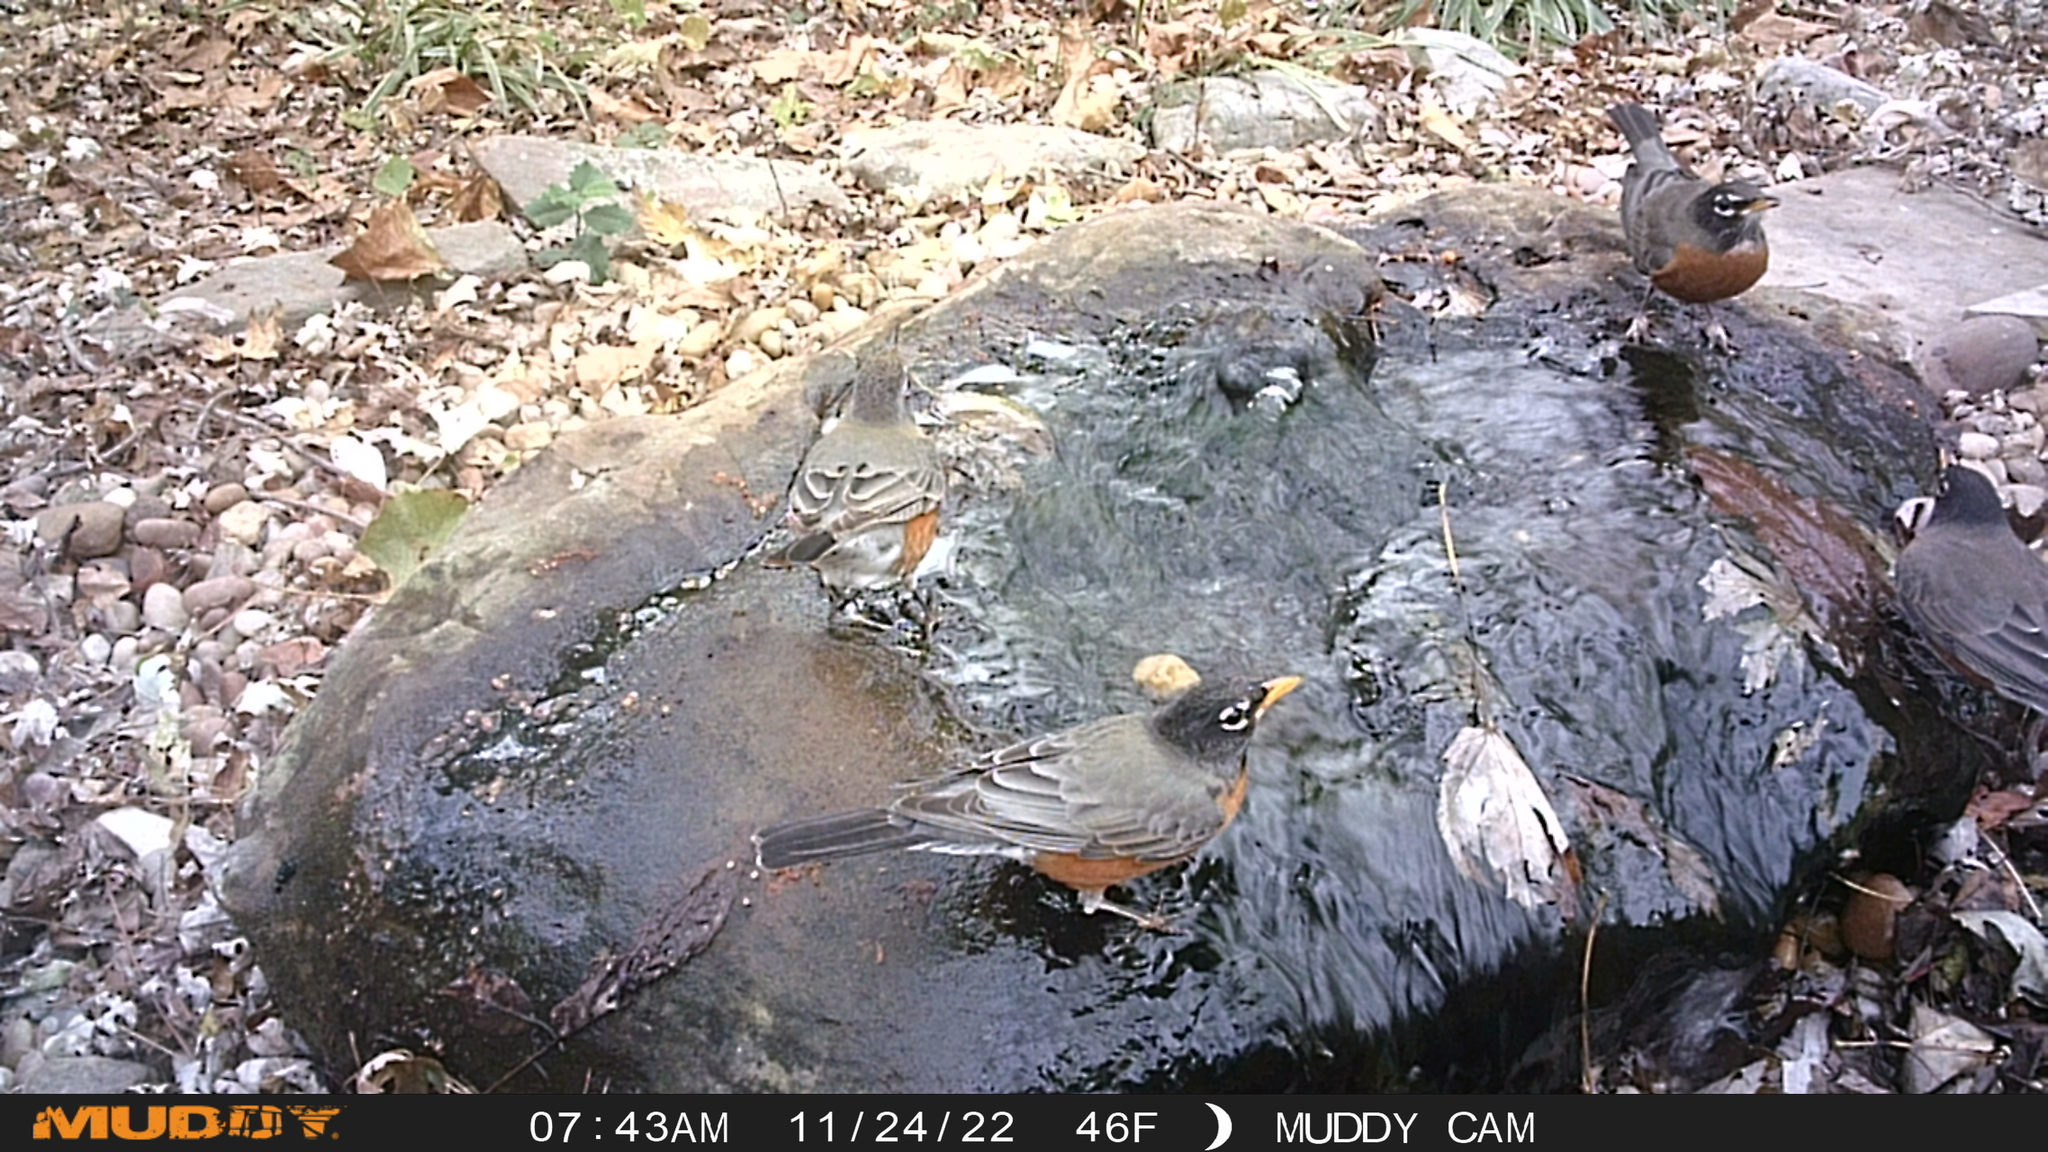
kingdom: Animalia
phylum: Chordata
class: Aves
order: Passeriformes
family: Turdidae
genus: Turdus
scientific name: Turdus migratorius
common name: American robin
